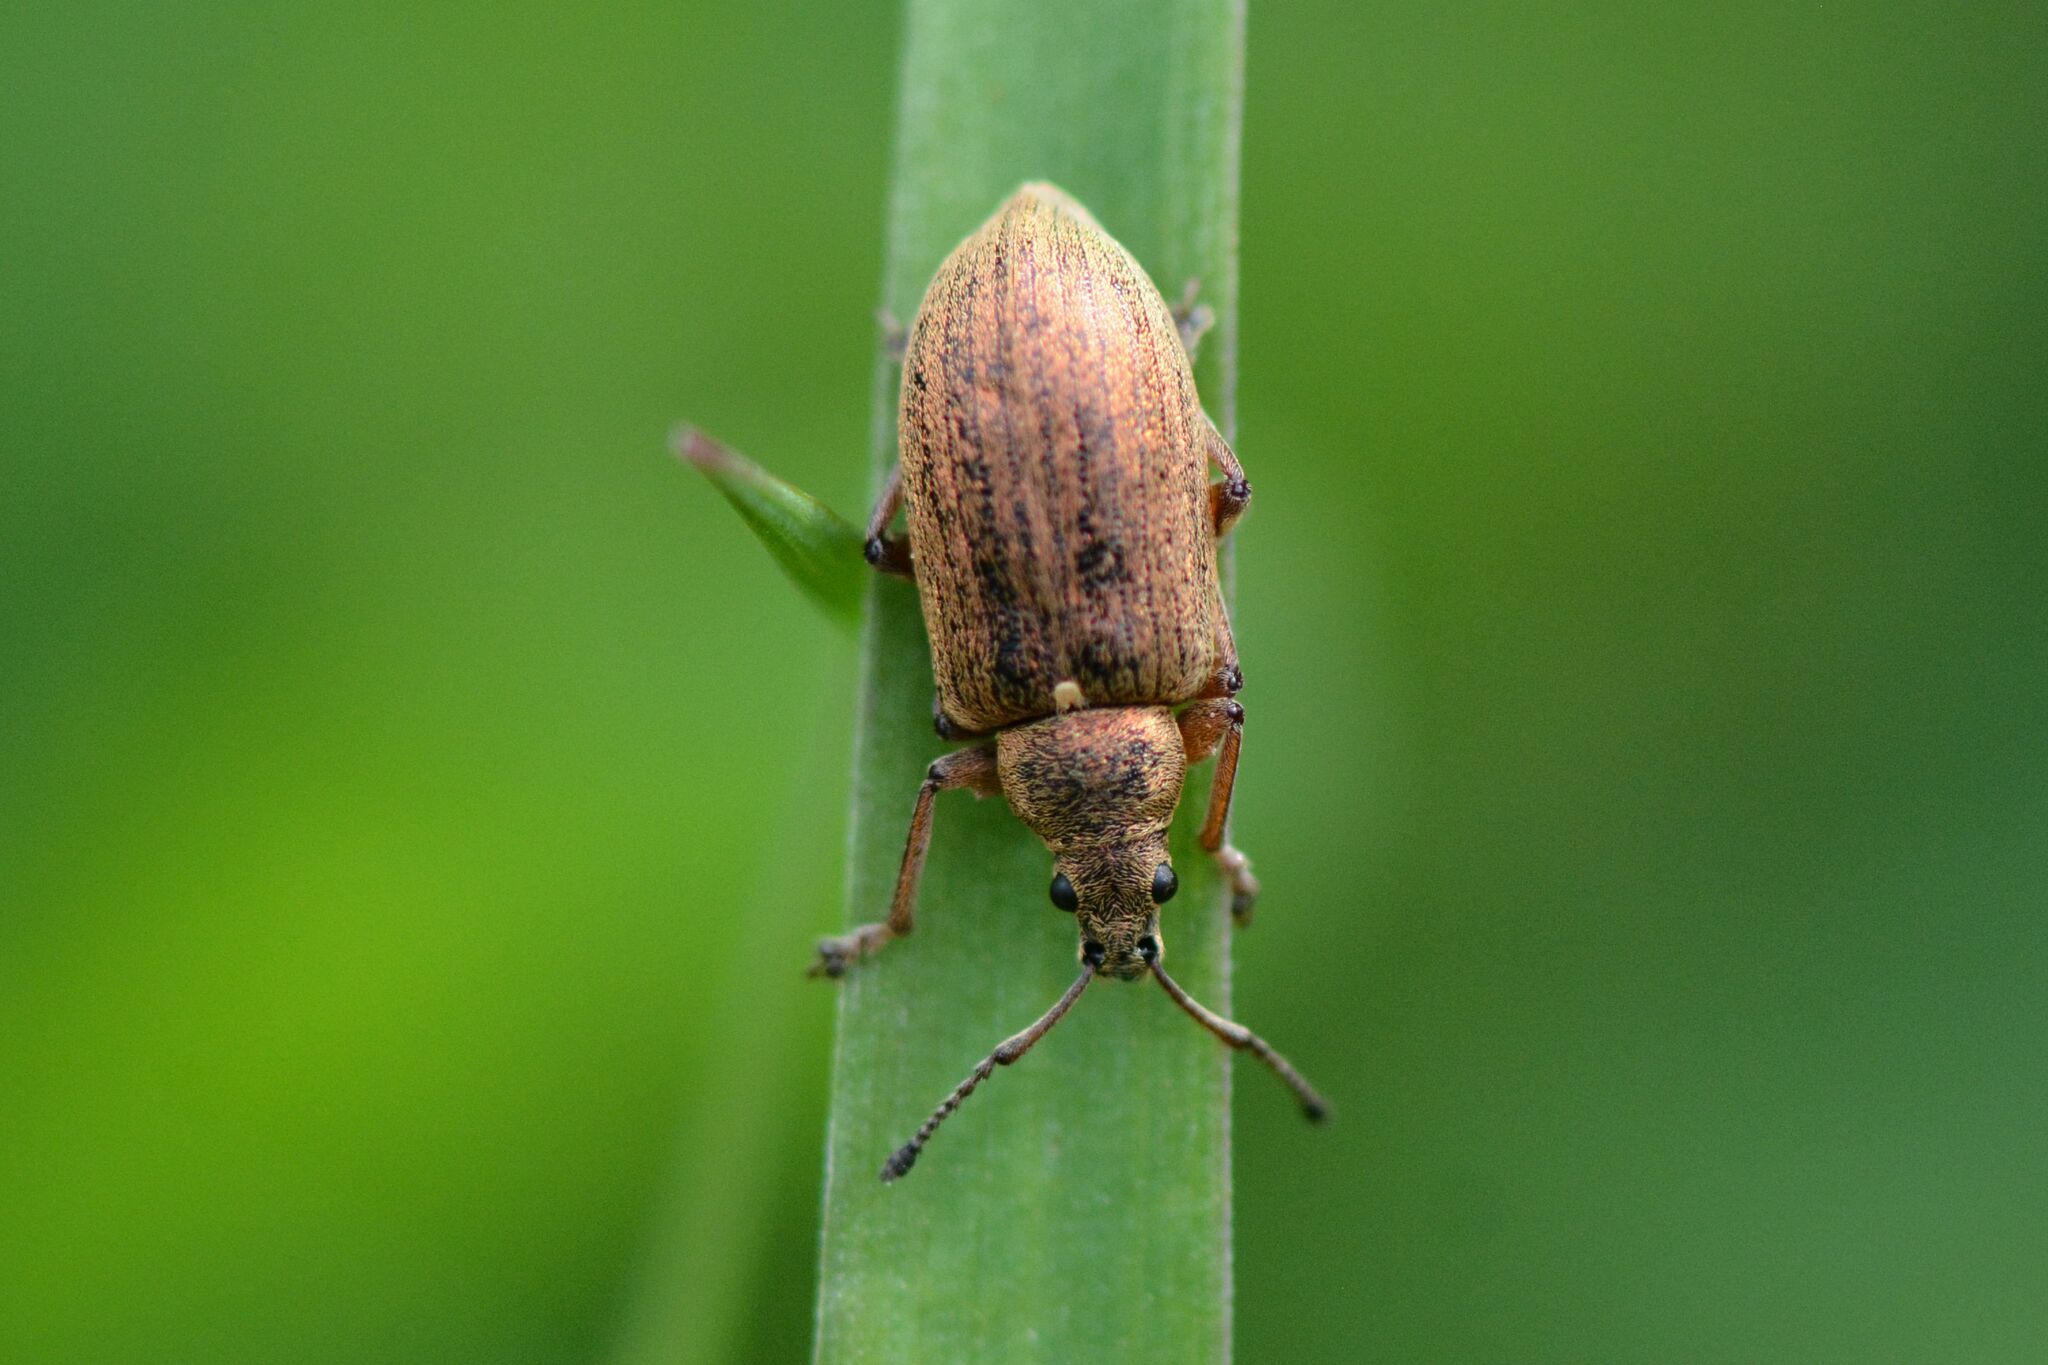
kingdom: Animalia
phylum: Arthropoda
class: Insecta
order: Coleoptera
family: Curculionidae
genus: Phyllobius
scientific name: Phyllobius pyri
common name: Common leaf weevil
